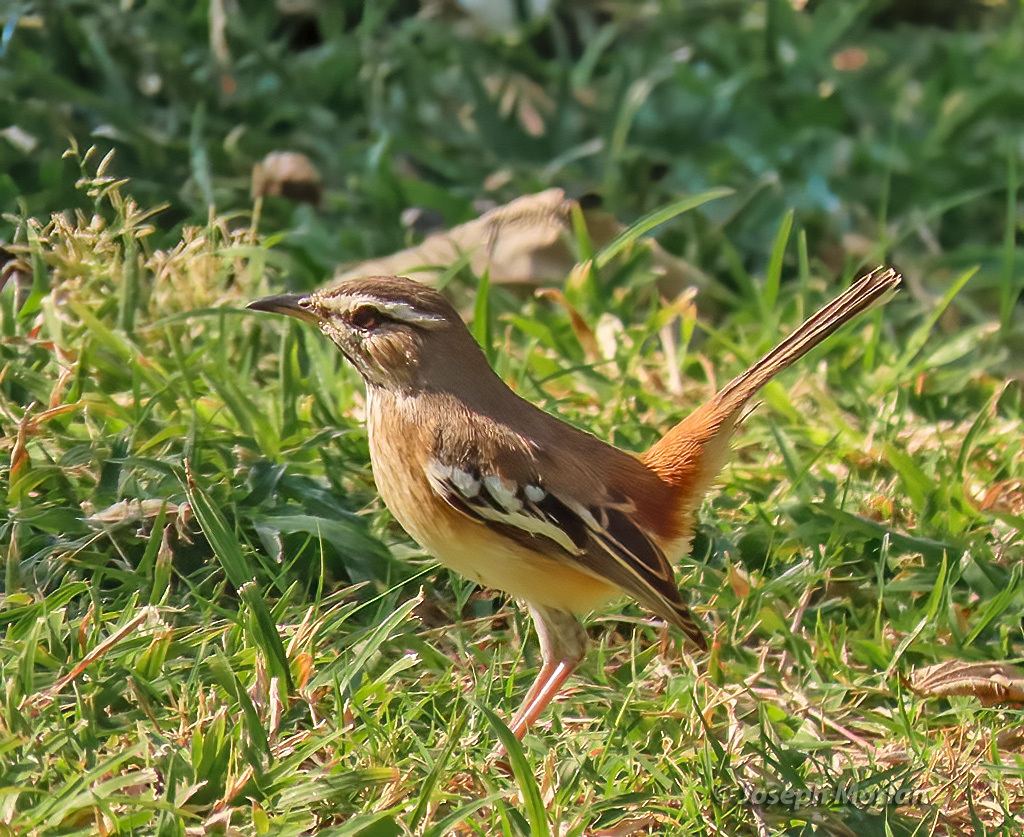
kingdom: Animalia
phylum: Chordata
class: Aves
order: Passeriformes
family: Muscicapidae
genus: Erythropygia
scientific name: Erythropygia leucophrys
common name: White-browed scrub robin
